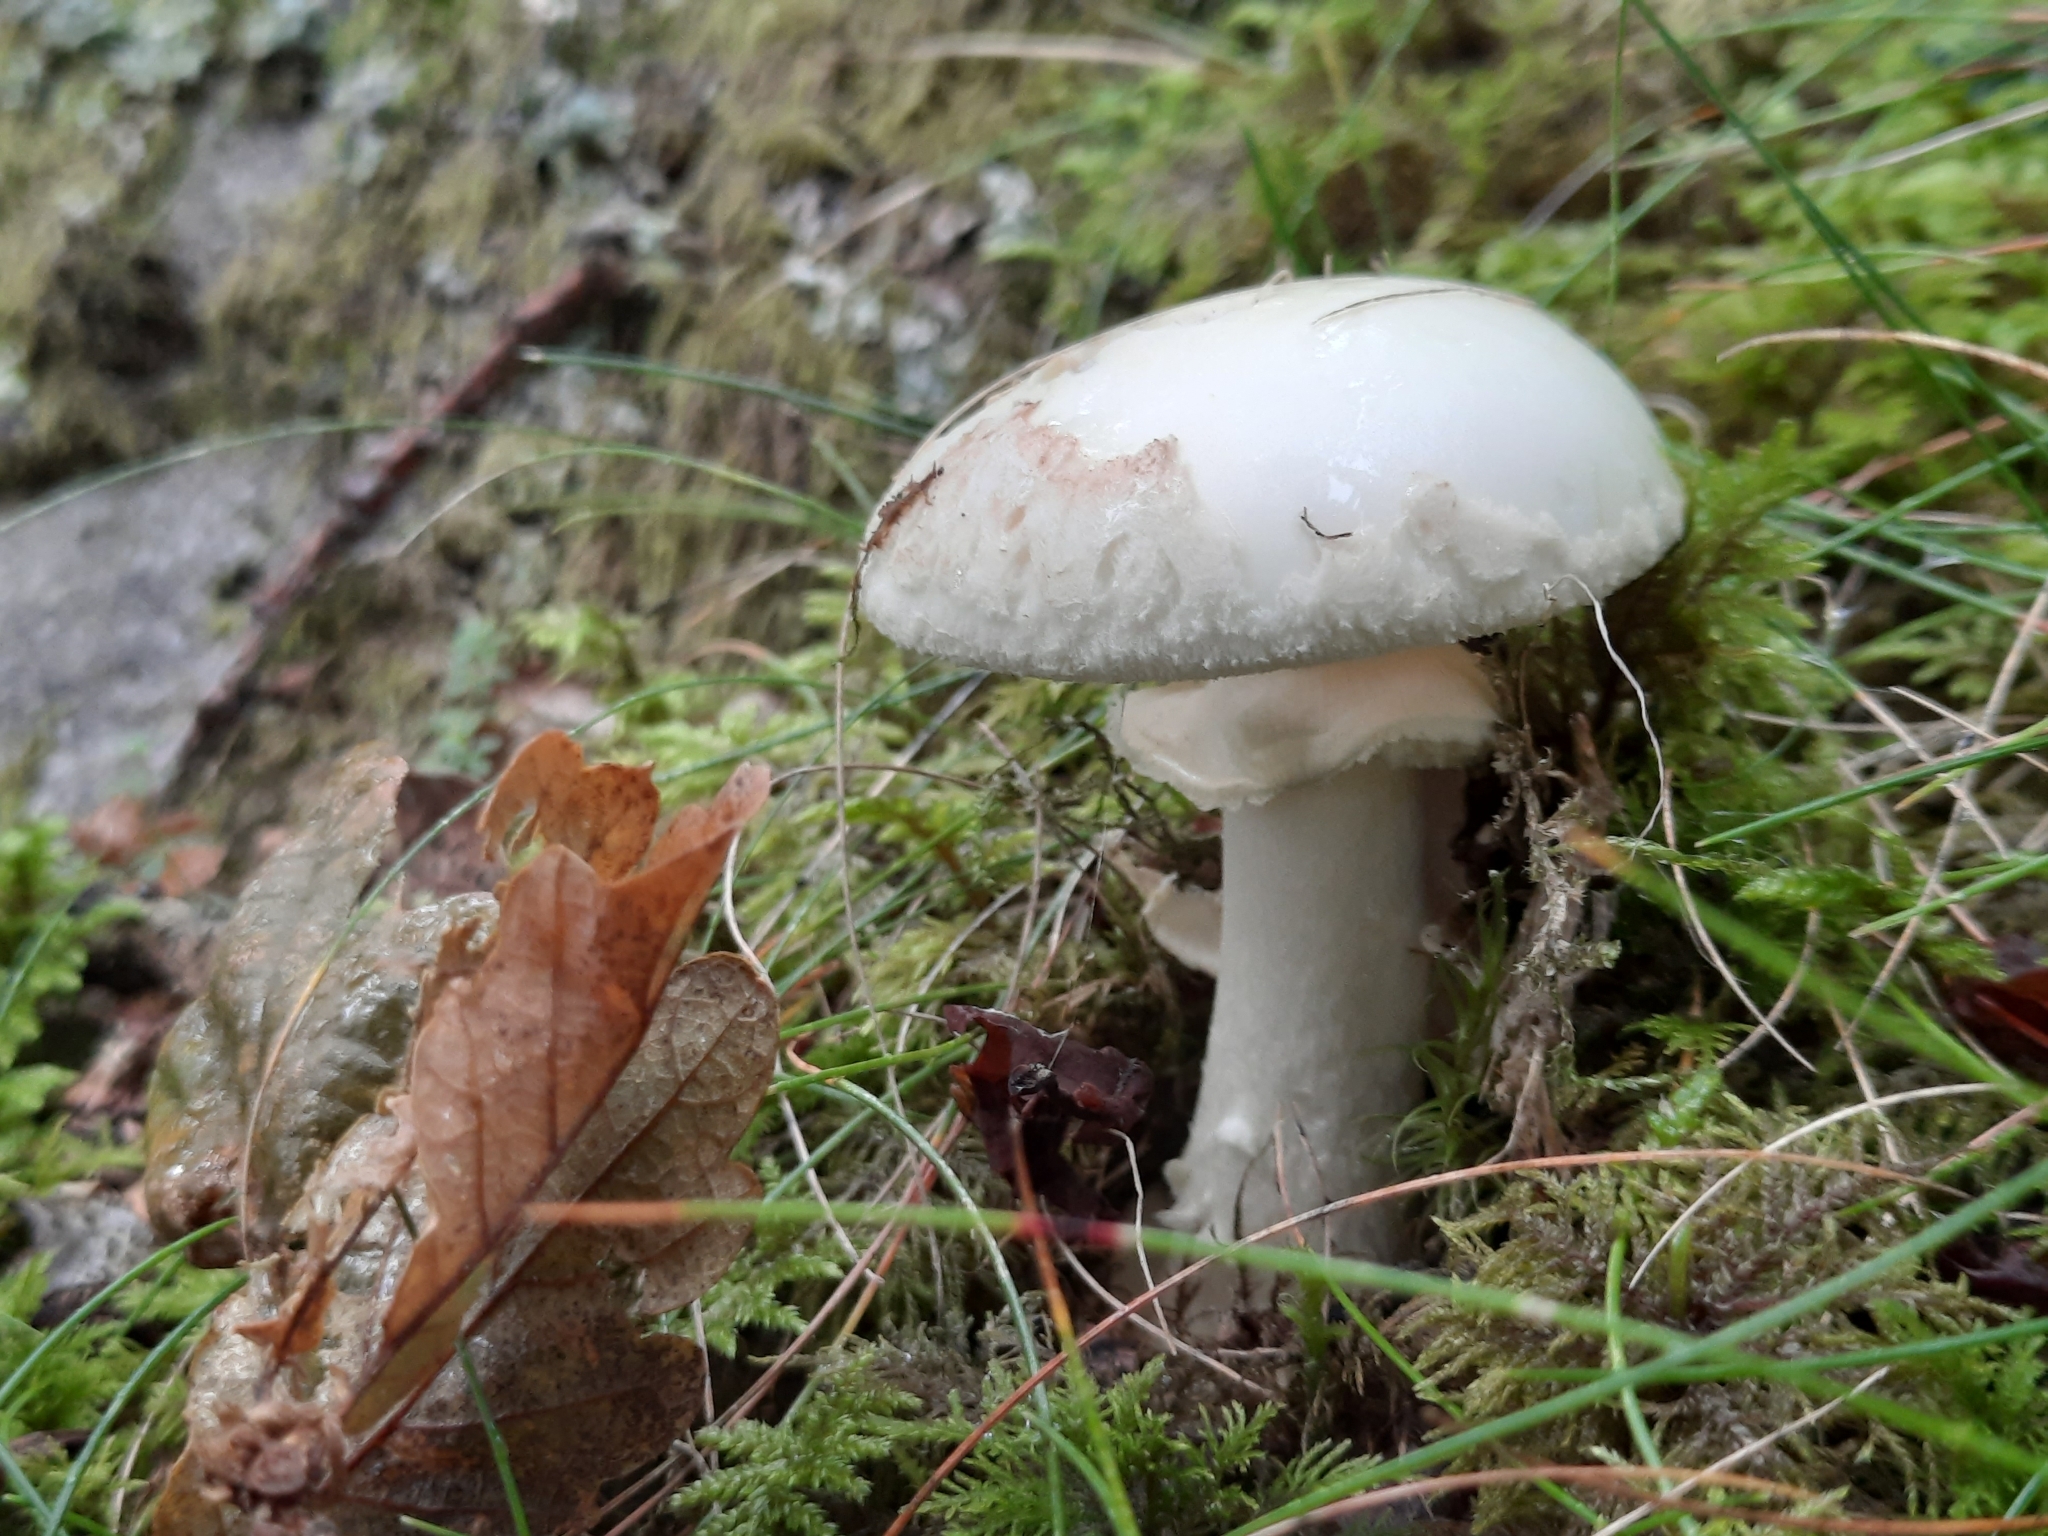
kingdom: Fungi
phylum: Basidiomycota
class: Agaricomycetes
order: Agaricales
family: Amanitaceae
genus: Amanita
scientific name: Amanita citrina
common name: False death-cap
